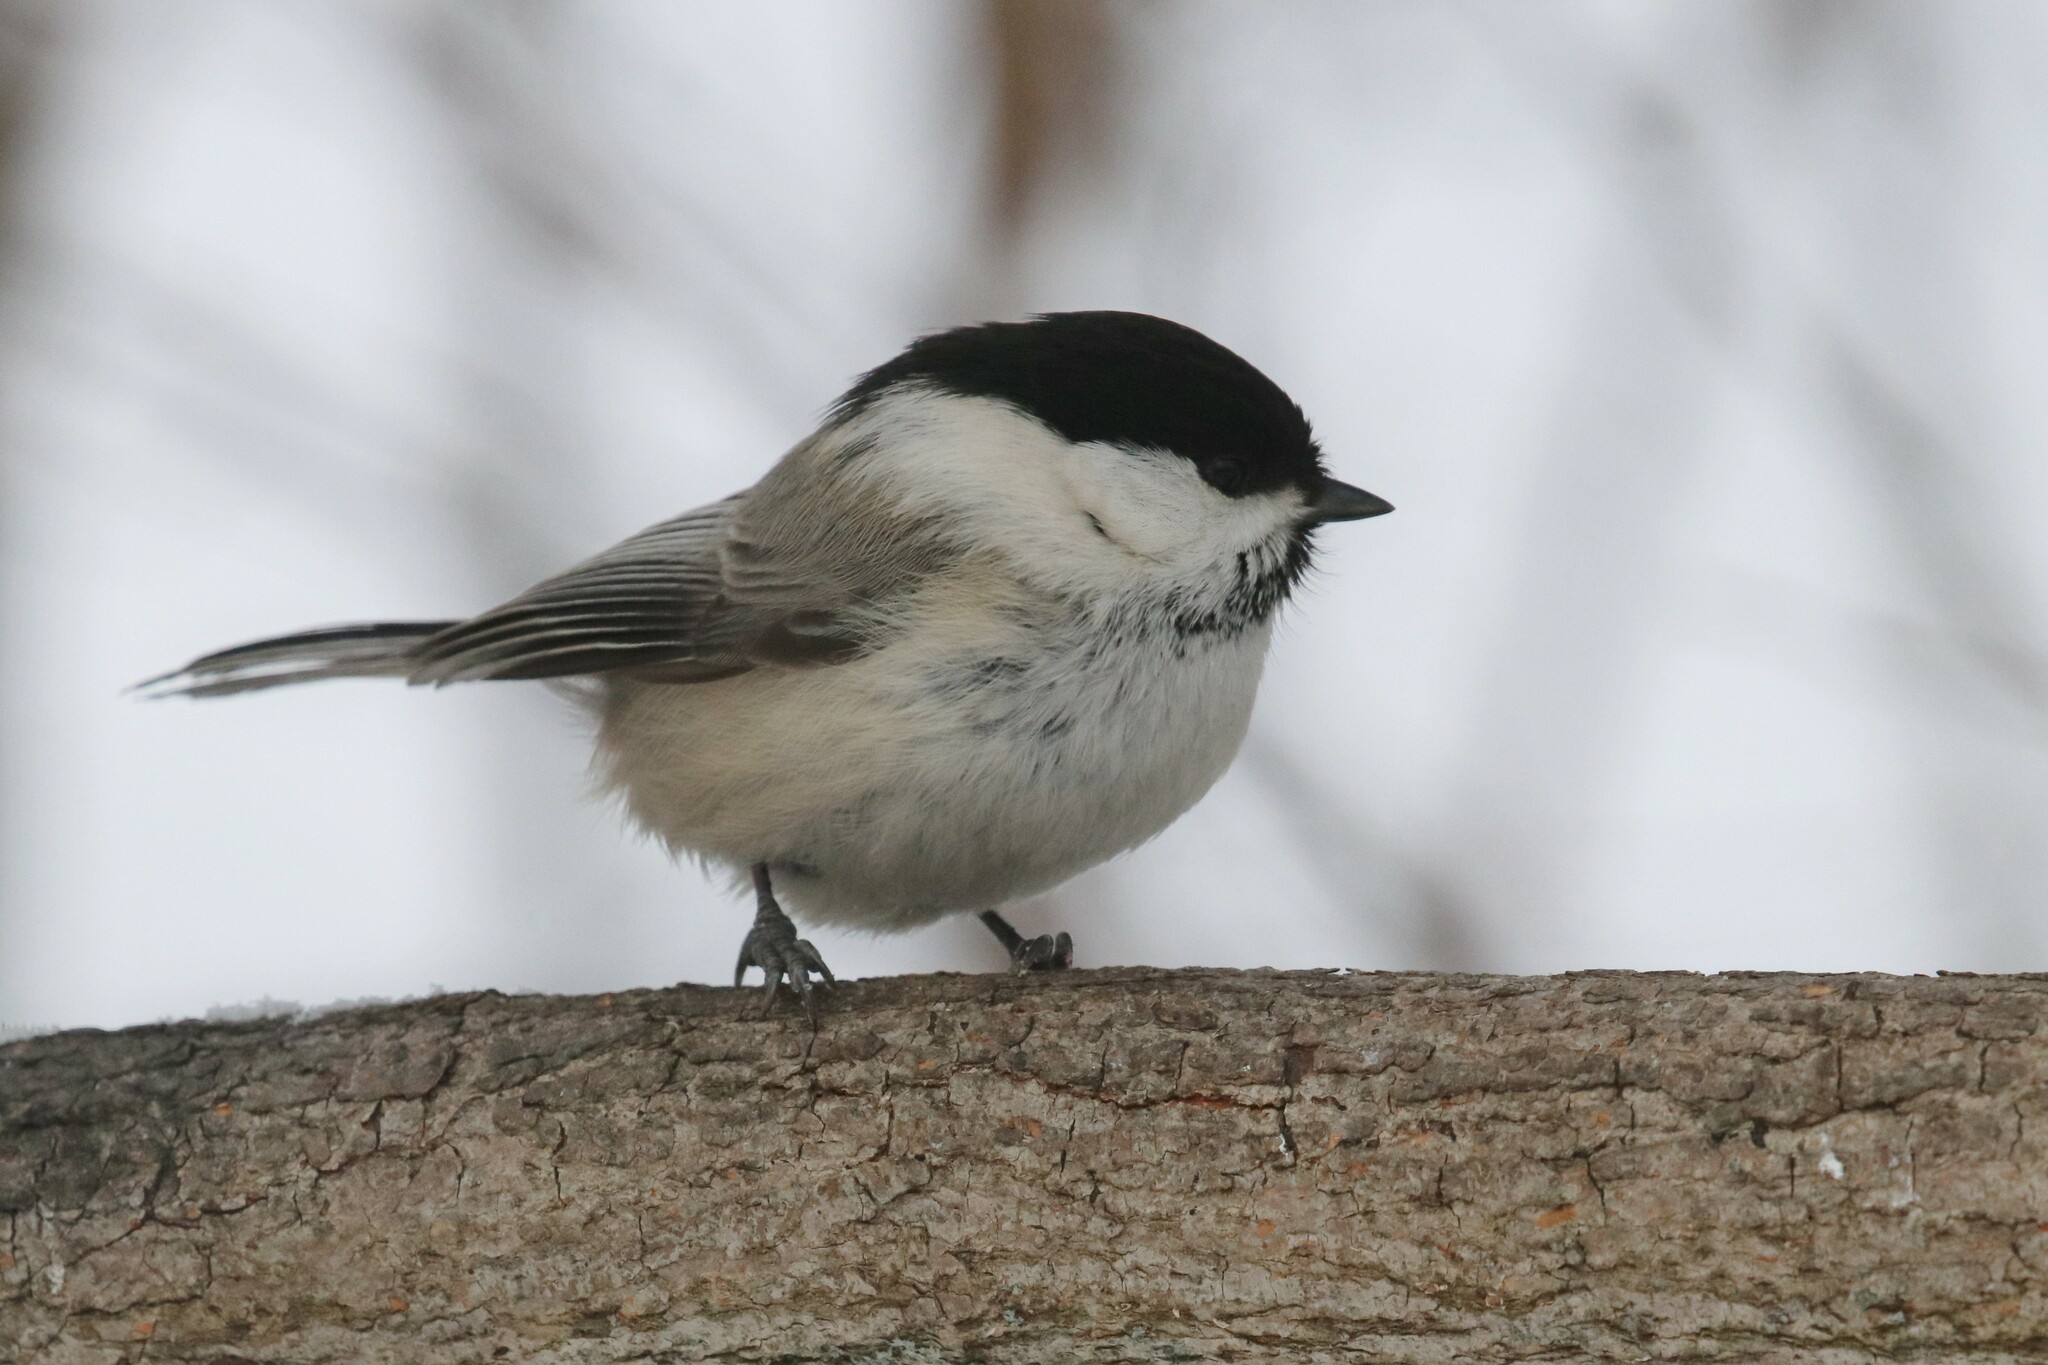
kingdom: Animalia
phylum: Chordata
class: Aves
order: Passeriformes
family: Paridae
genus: Poecile
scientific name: Poecile montanus
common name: Willow tit
